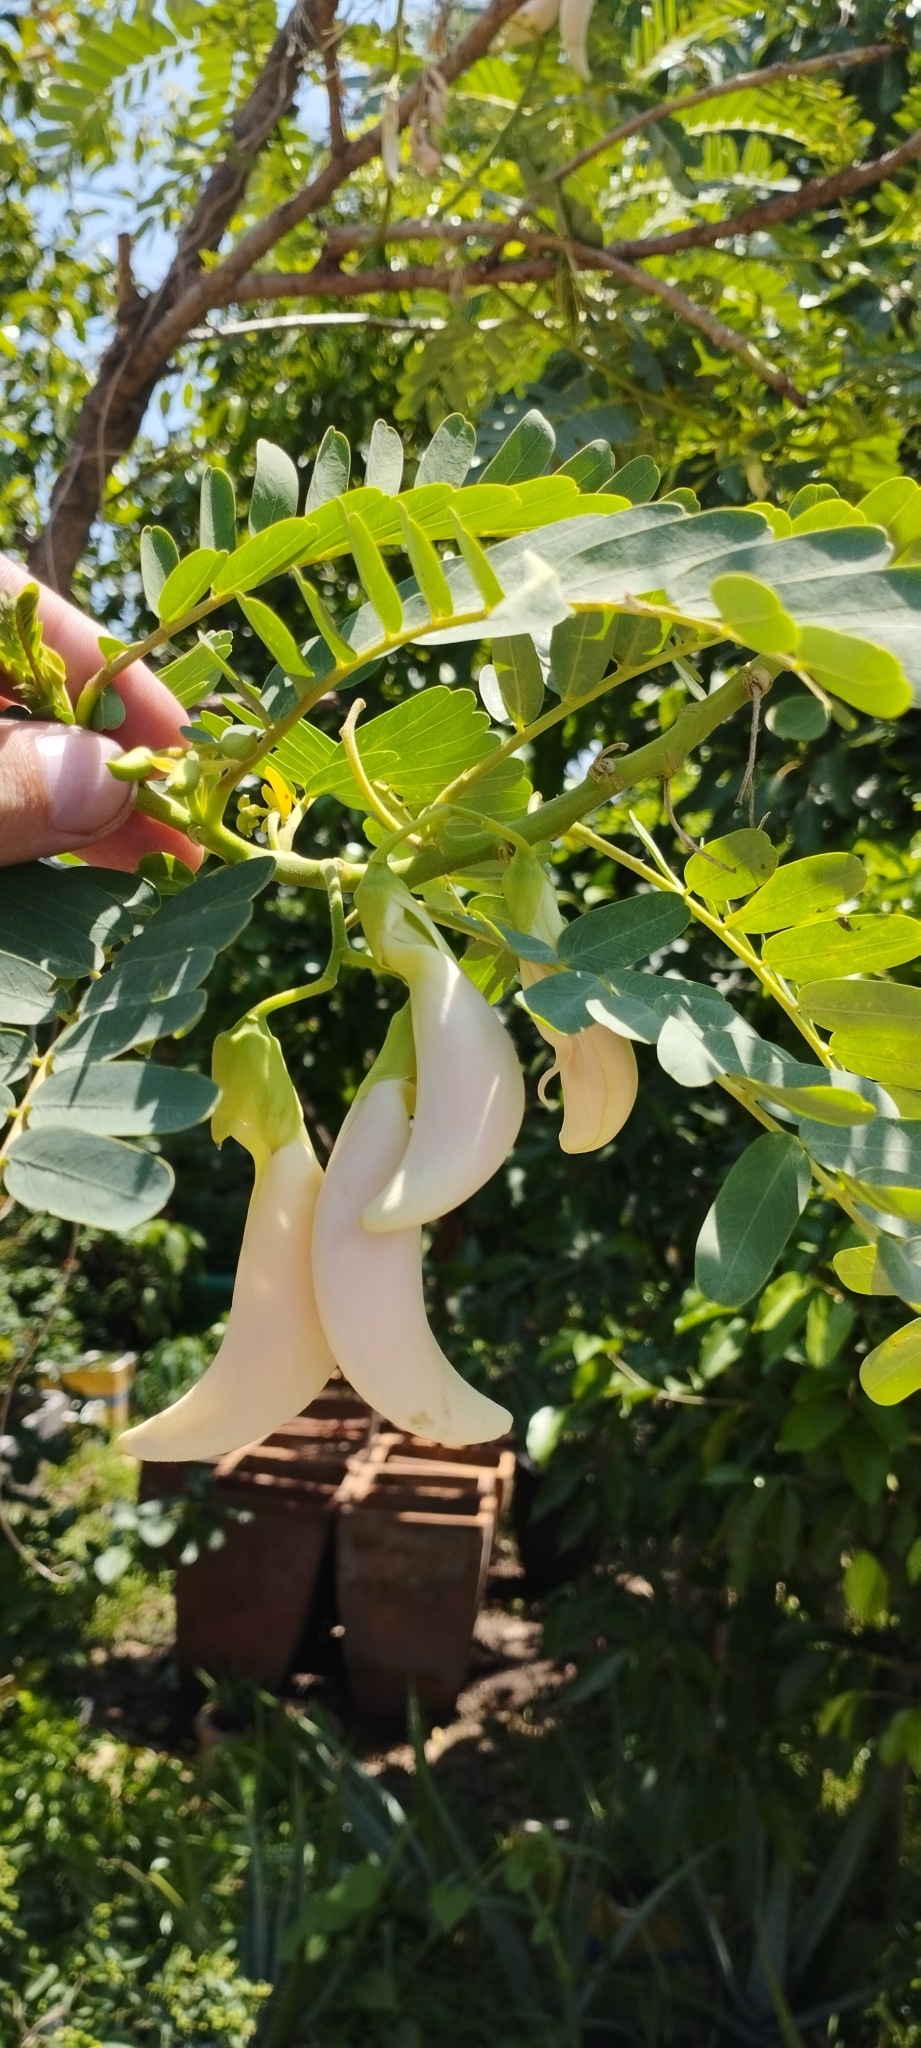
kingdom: Plantae
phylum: Tracheophyta
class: Magnoliopsida
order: Fabales
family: Fabaceae
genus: Sesbania
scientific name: Sesbania grandiflora
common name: Vegetable-hummingbird
